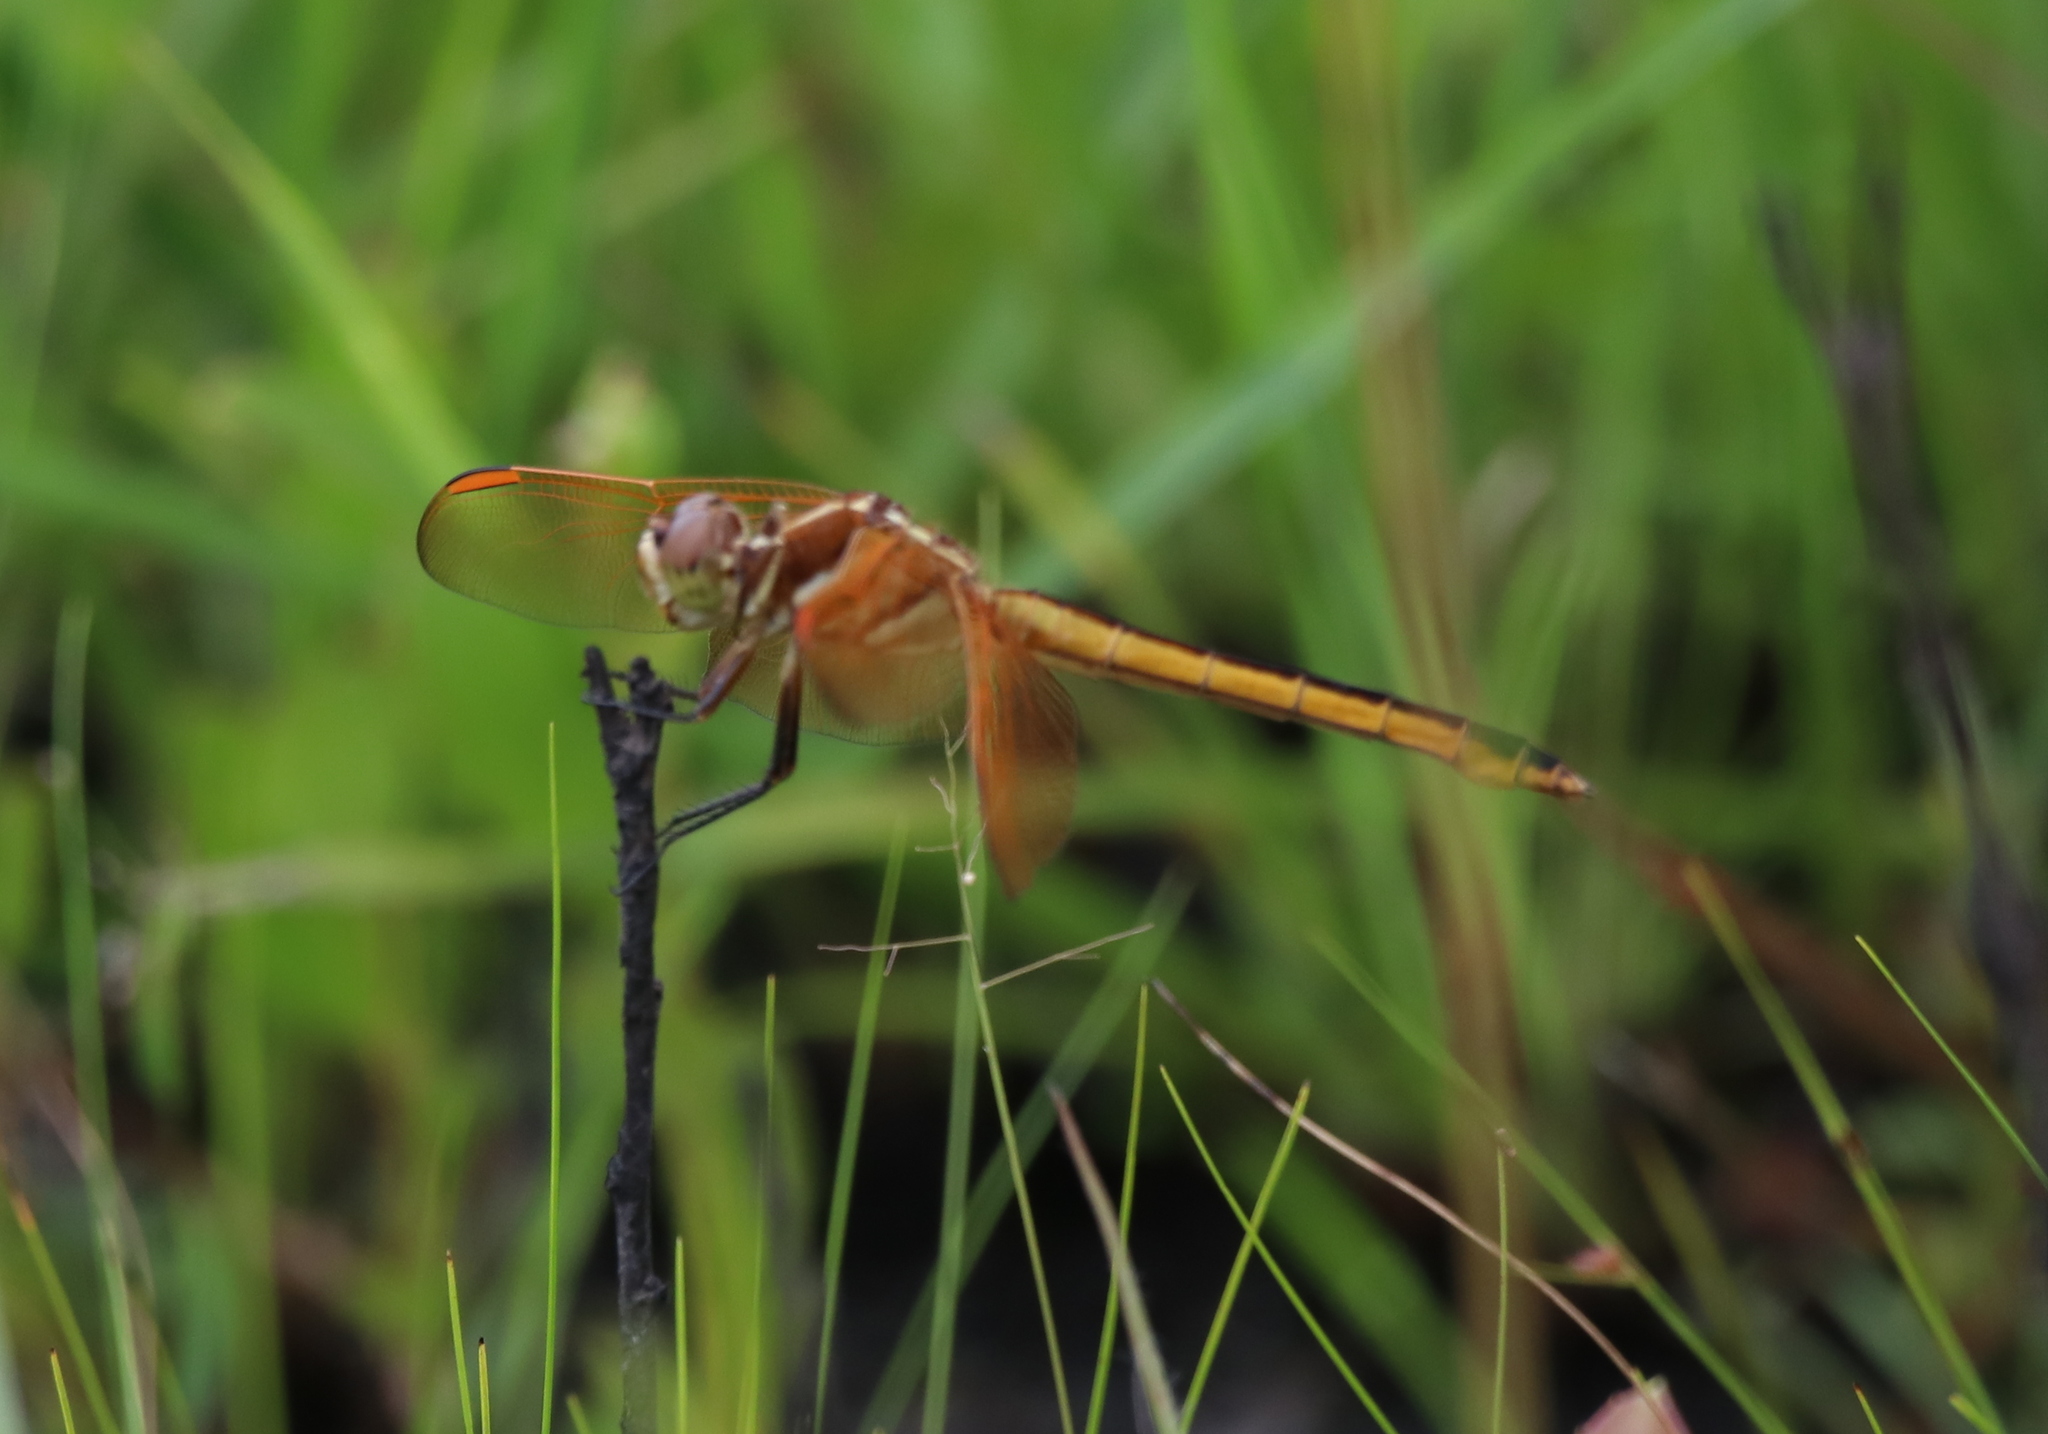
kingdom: Animalia
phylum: Arthropoda
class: Insecta
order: Odonata
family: Libellulidae
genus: Libellula
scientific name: Libellula auripennis
